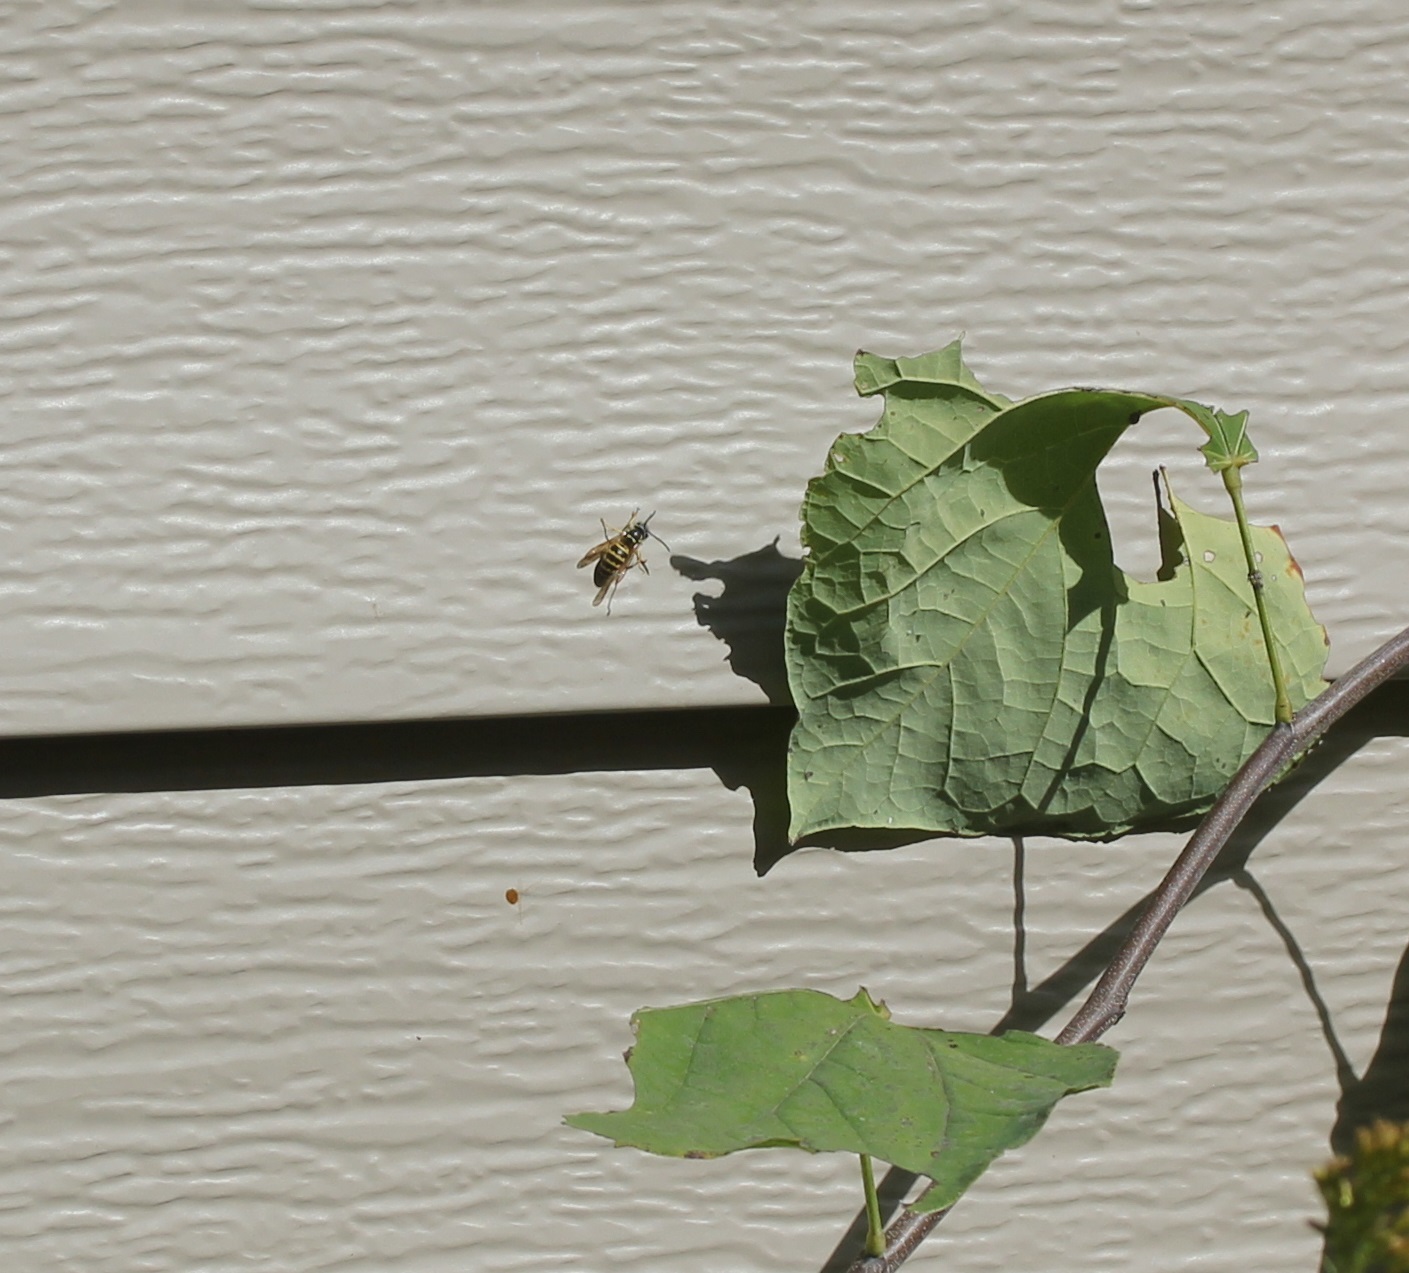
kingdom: Animalia
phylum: Arthropoda
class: Insecta
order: Hymenoptera
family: Vespidae
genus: Vespula
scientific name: Vespula maculifrons
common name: Eastern yellowjacket
